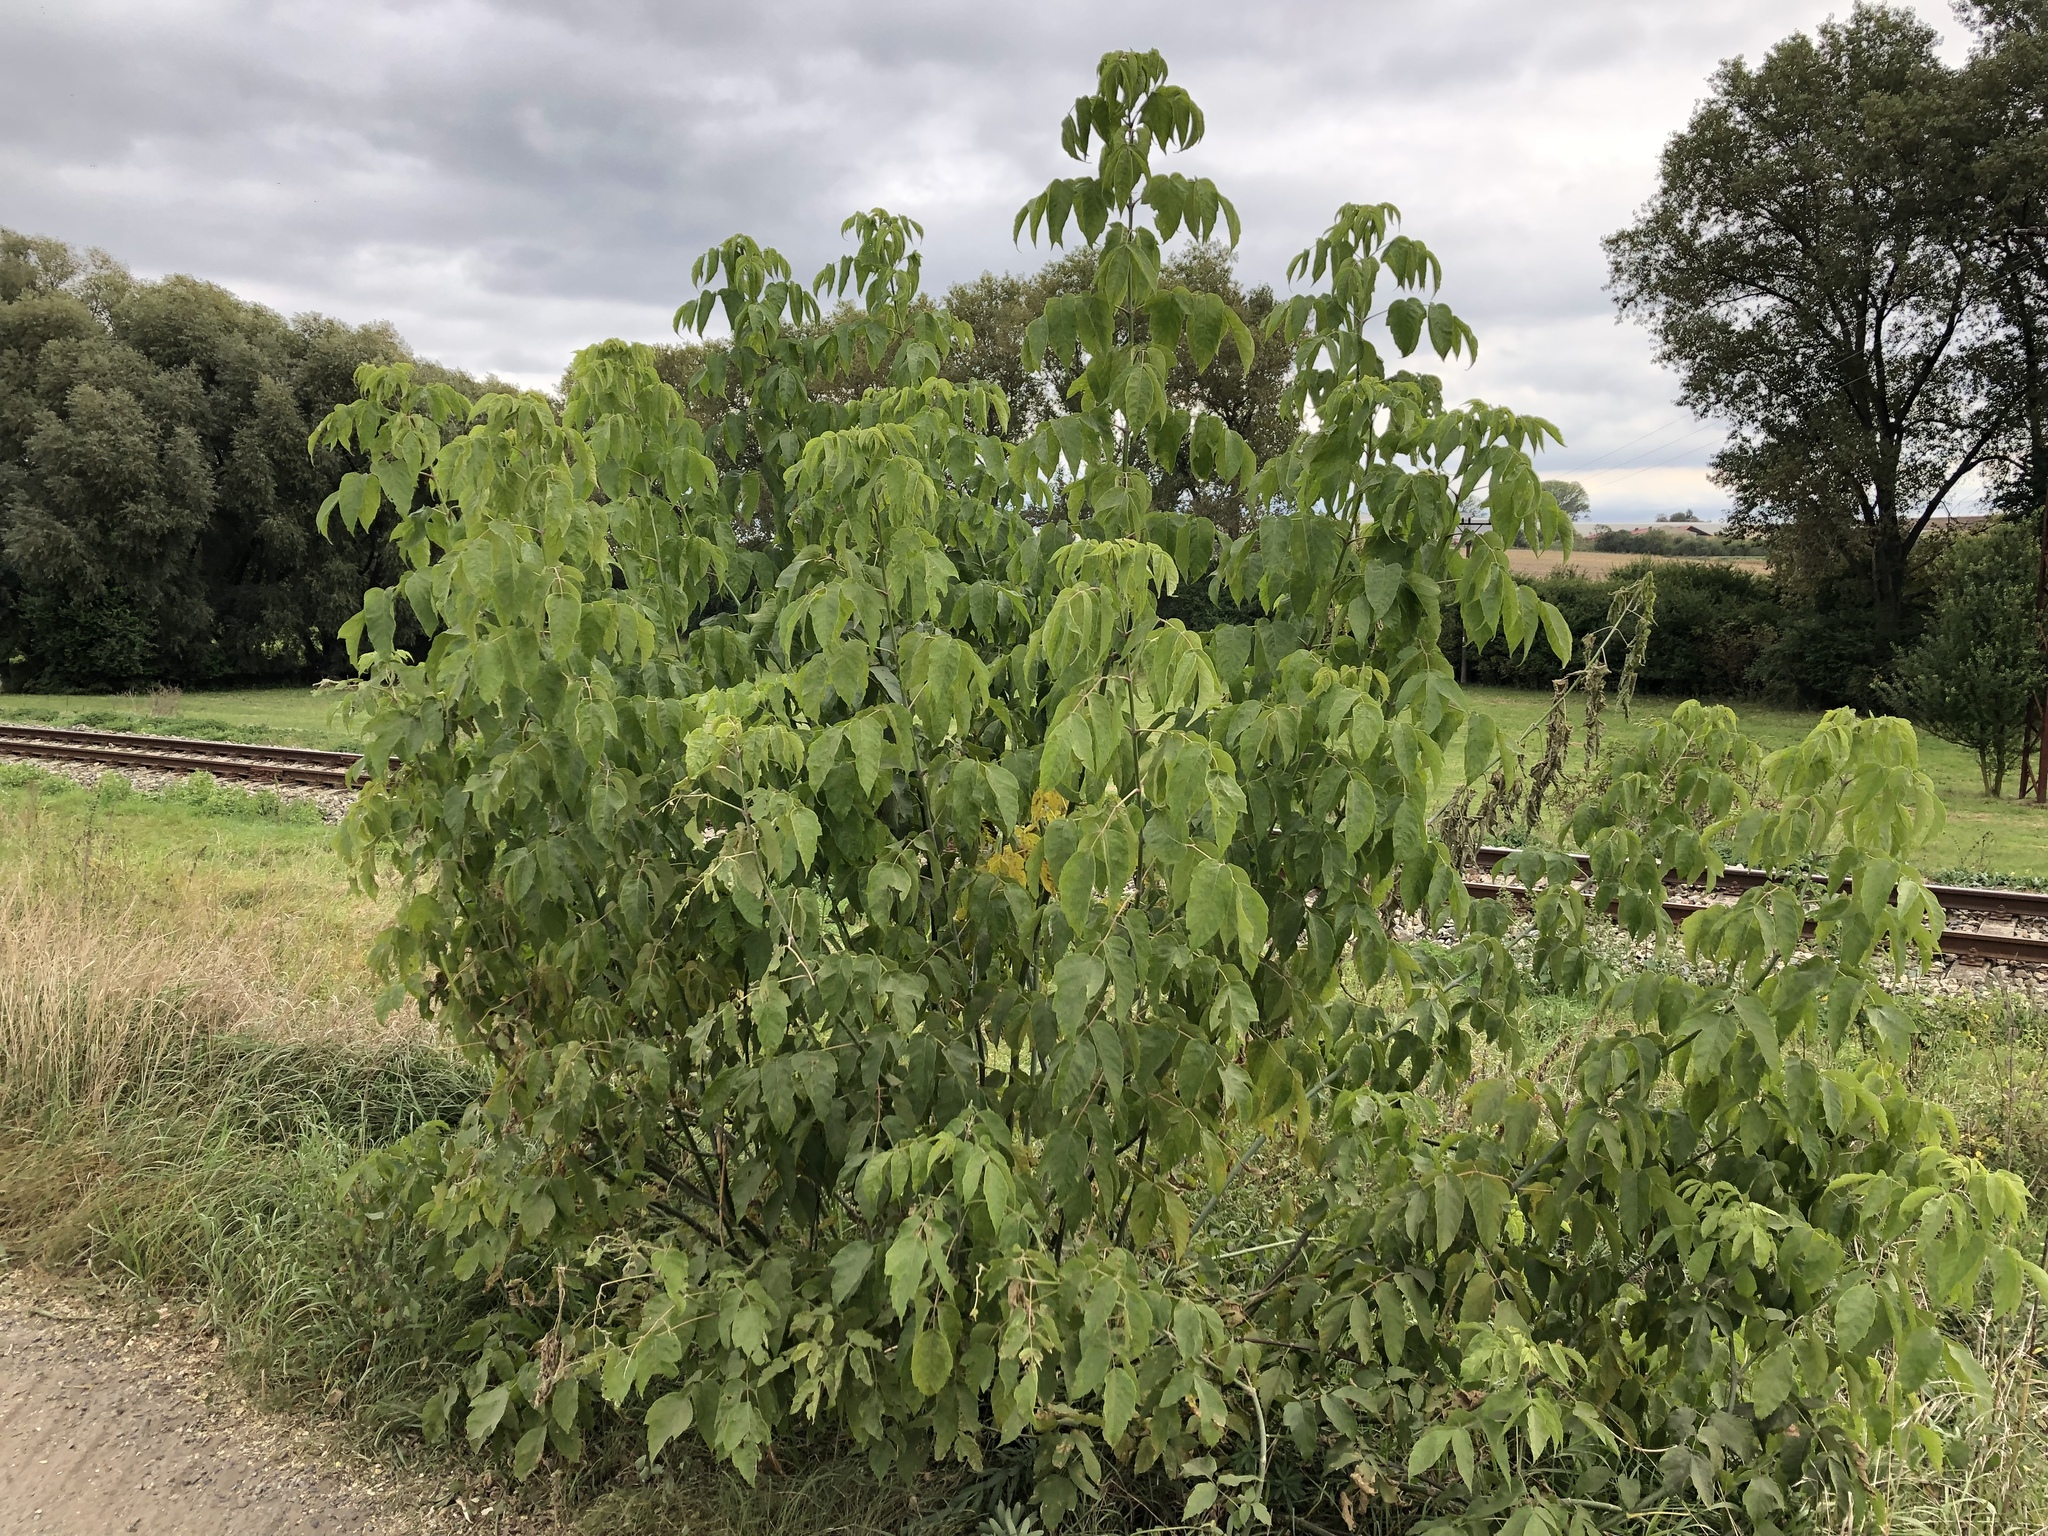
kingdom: Plantae
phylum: Tracheophyta
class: Magnoliopsida
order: Sapindales
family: Sapindaceae
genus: Acer
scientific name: Acer negundo
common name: Ashleaf maple
